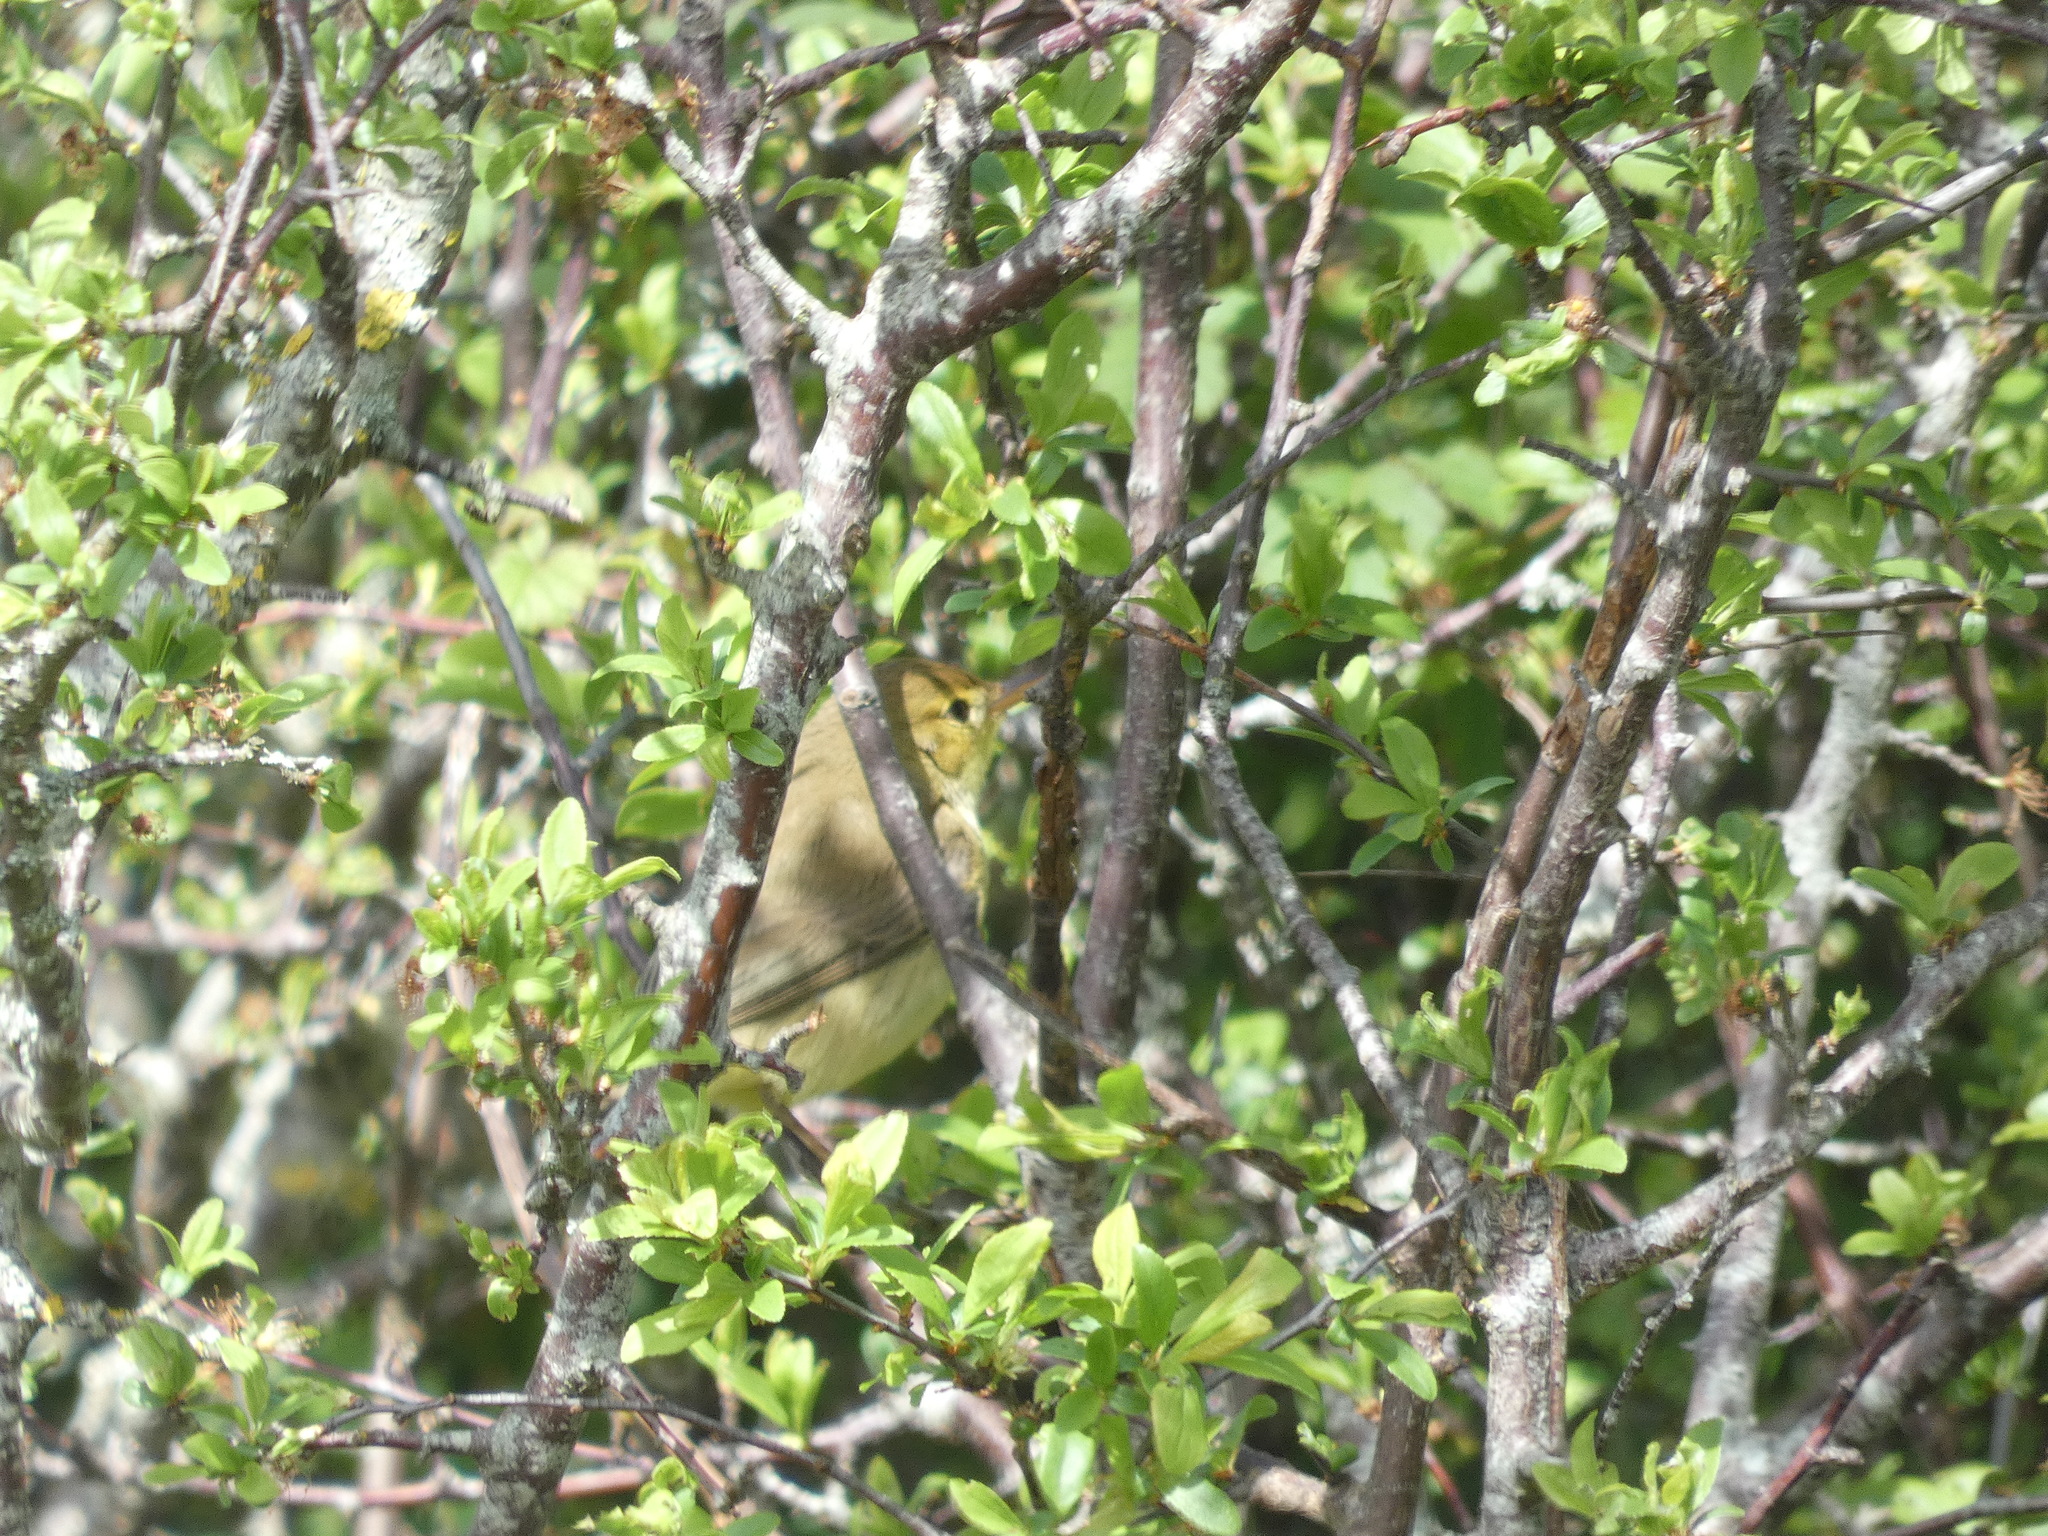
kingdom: Animalia
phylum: Chordata
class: Aves
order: Passeriformes
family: Phylloscopidae
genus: Phylloscopus
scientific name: Phylloscopus trochilus
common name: Willow warbler
